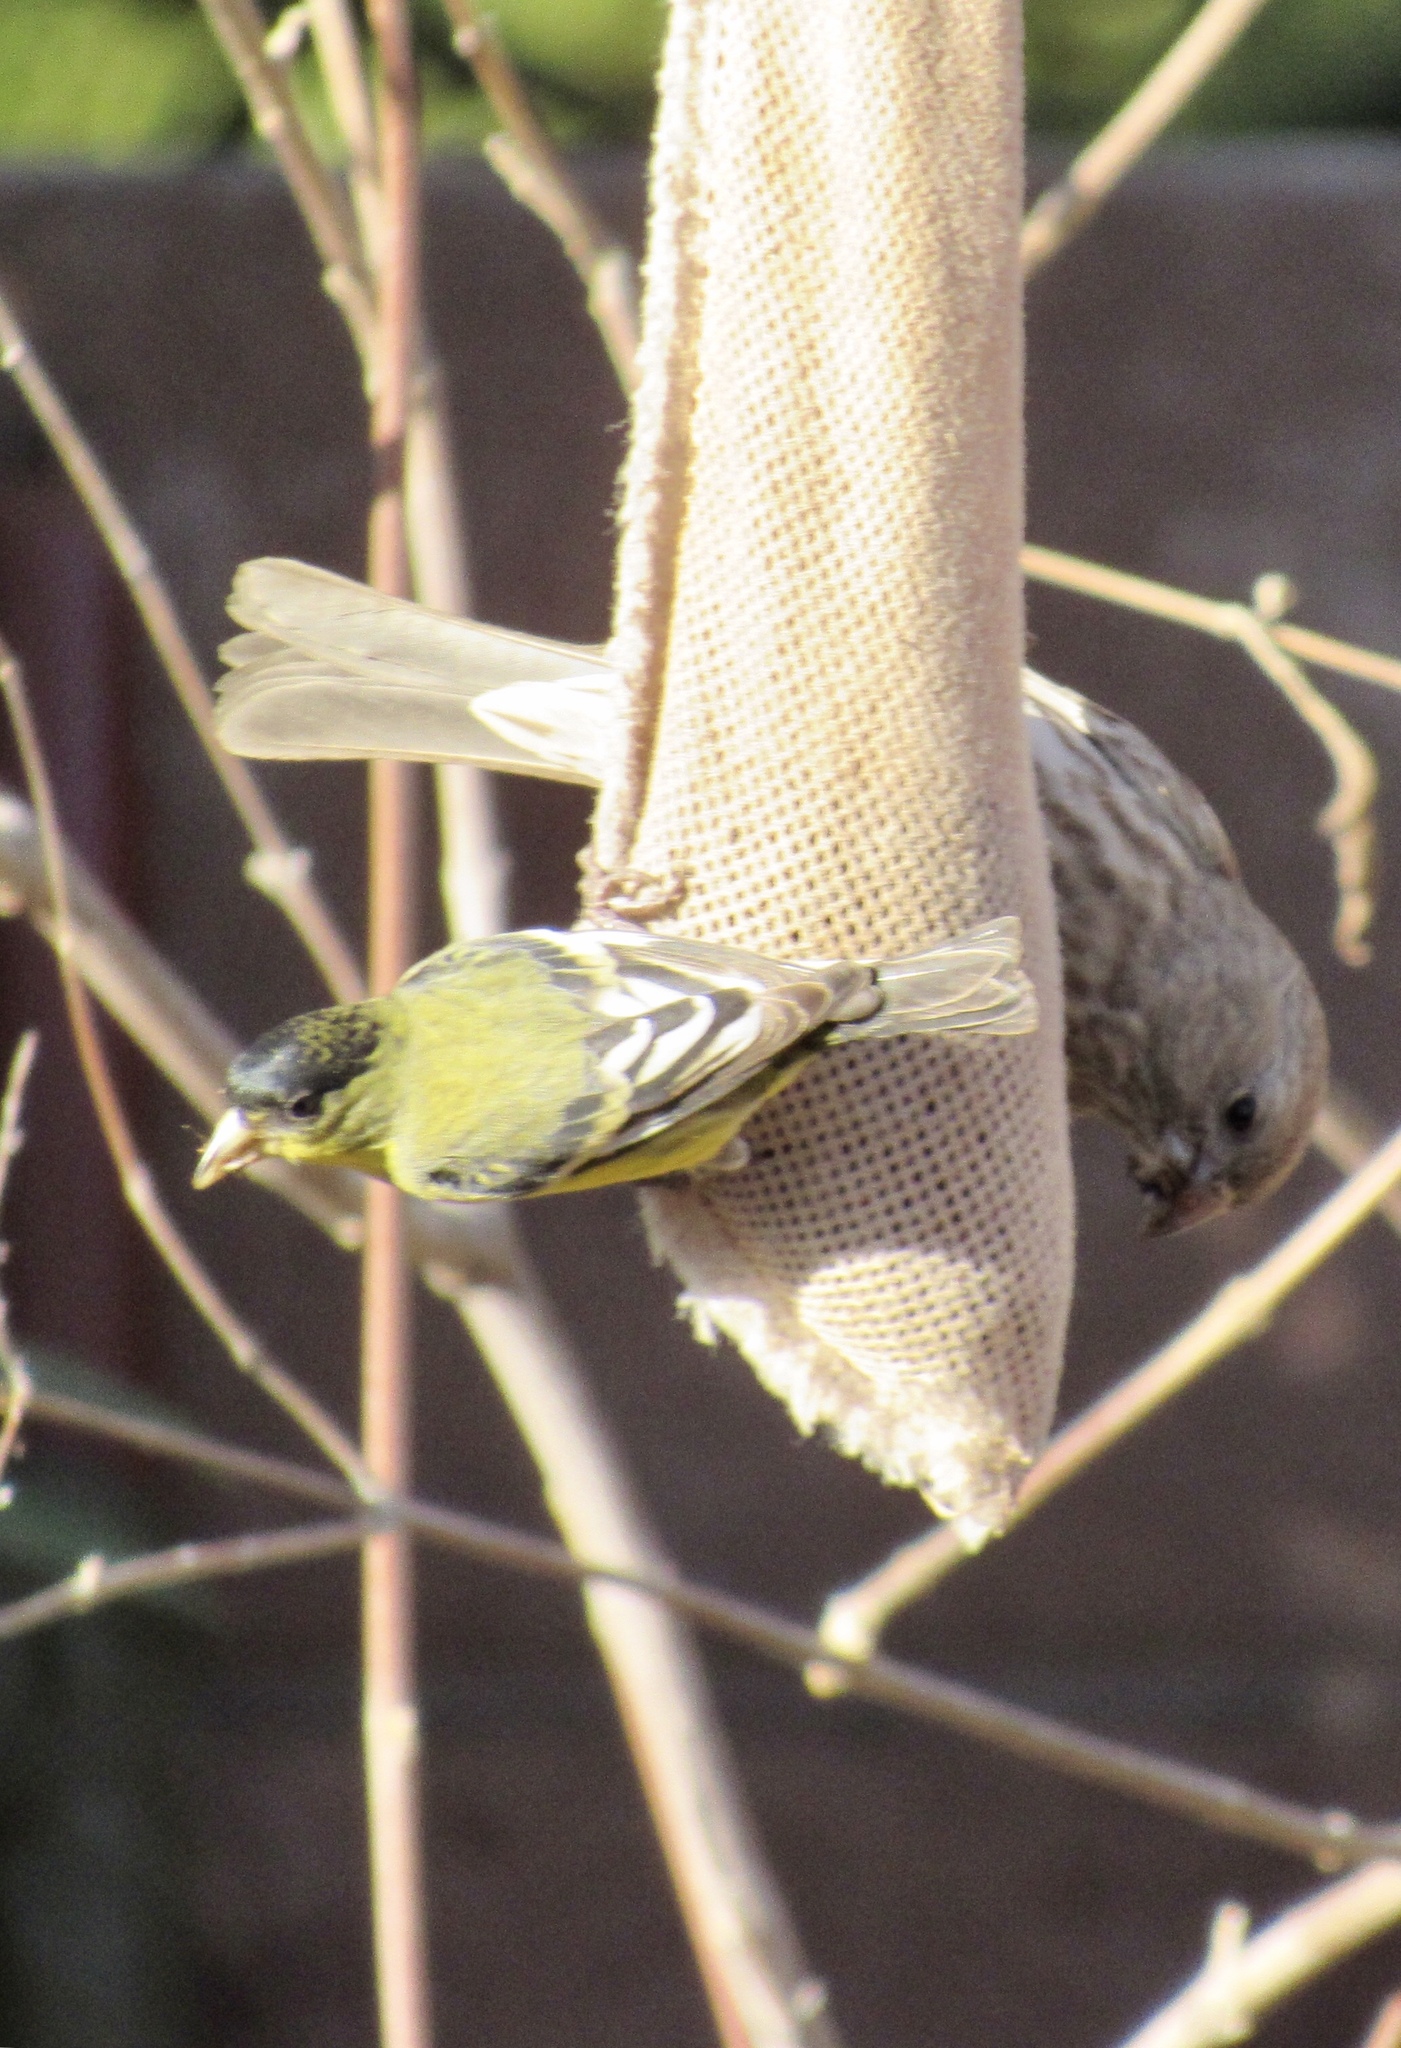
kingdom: Animalia
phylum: Chordata
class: Aves
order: Passeriformes
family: Fringillidae
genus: Spinus
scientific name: Spinus psaltria
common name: Lesser goldfinch
